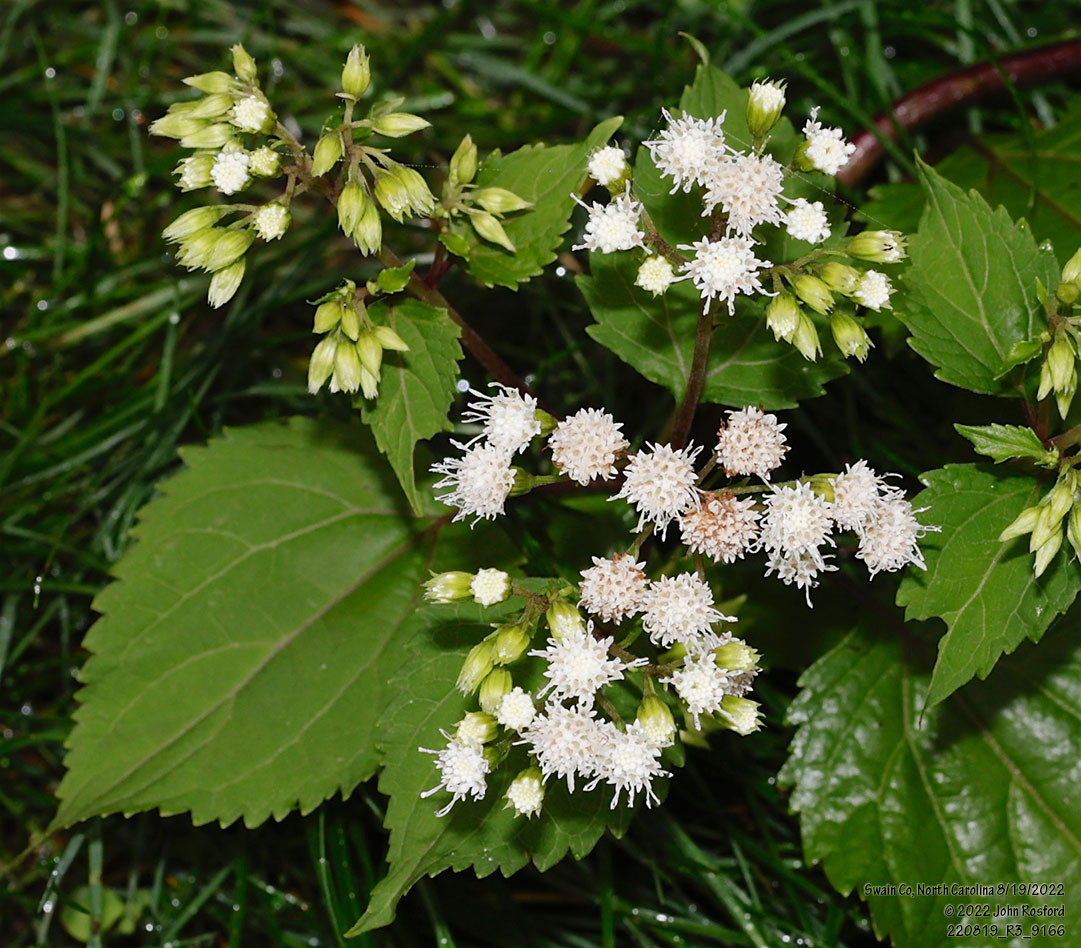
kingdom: Plantae
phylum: Tracheophyta
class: Magnoliopsida
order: Asterales
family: Asteraceae
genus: Ageratina
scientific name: Ageratina altissima
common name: White snakeroot
